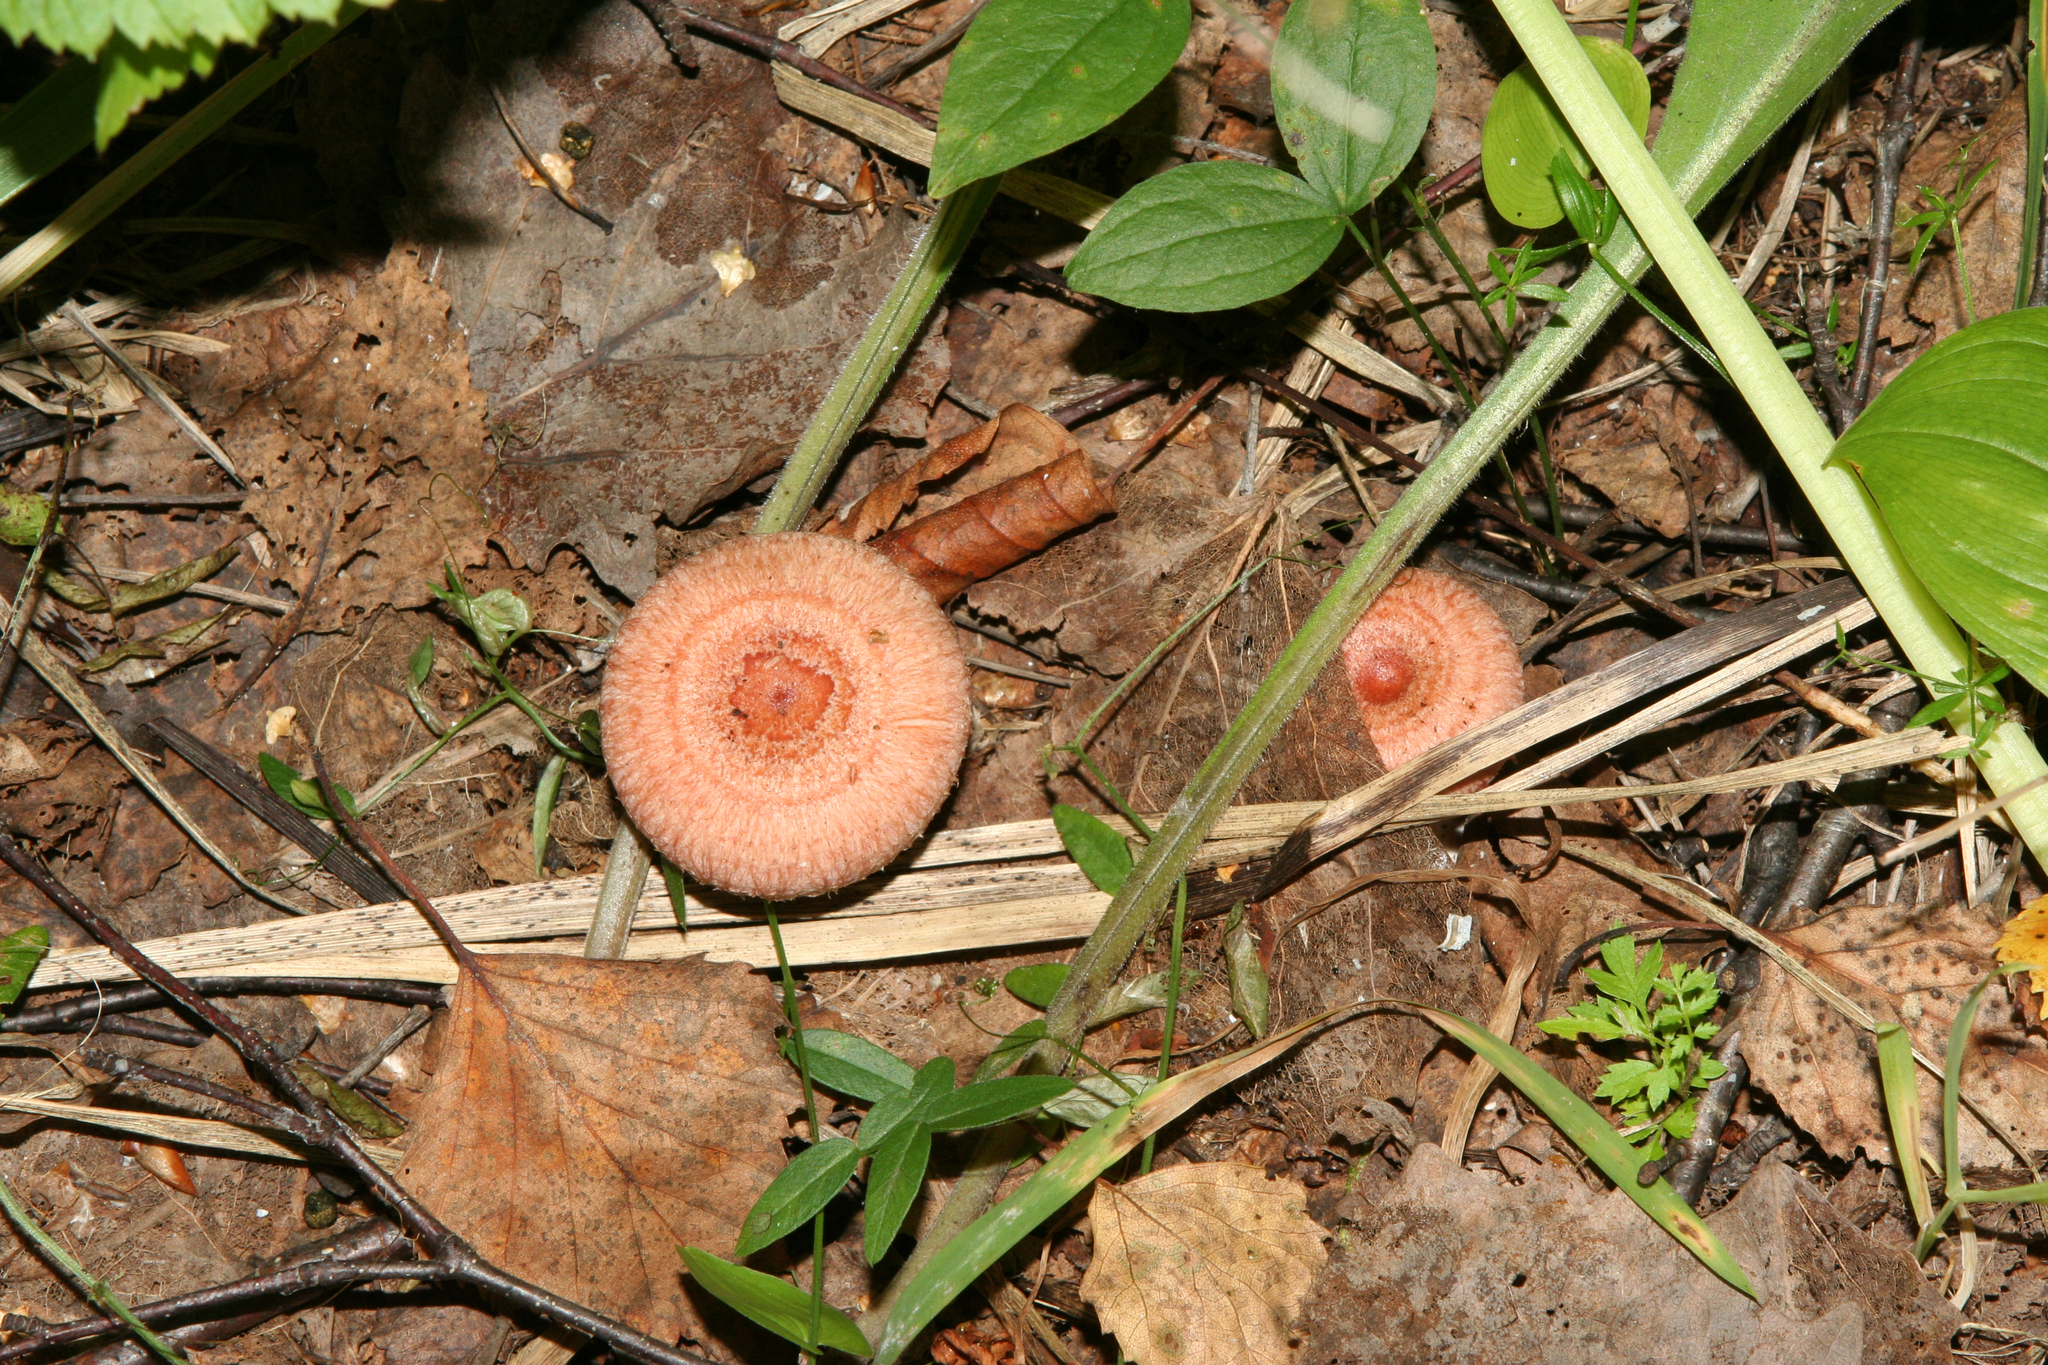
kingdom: Fungi
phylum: Basidiomycota
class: Agaricomycetes
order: Russulales
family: Russulaceae
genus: Lactarius
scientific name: Lactarius torminosus
